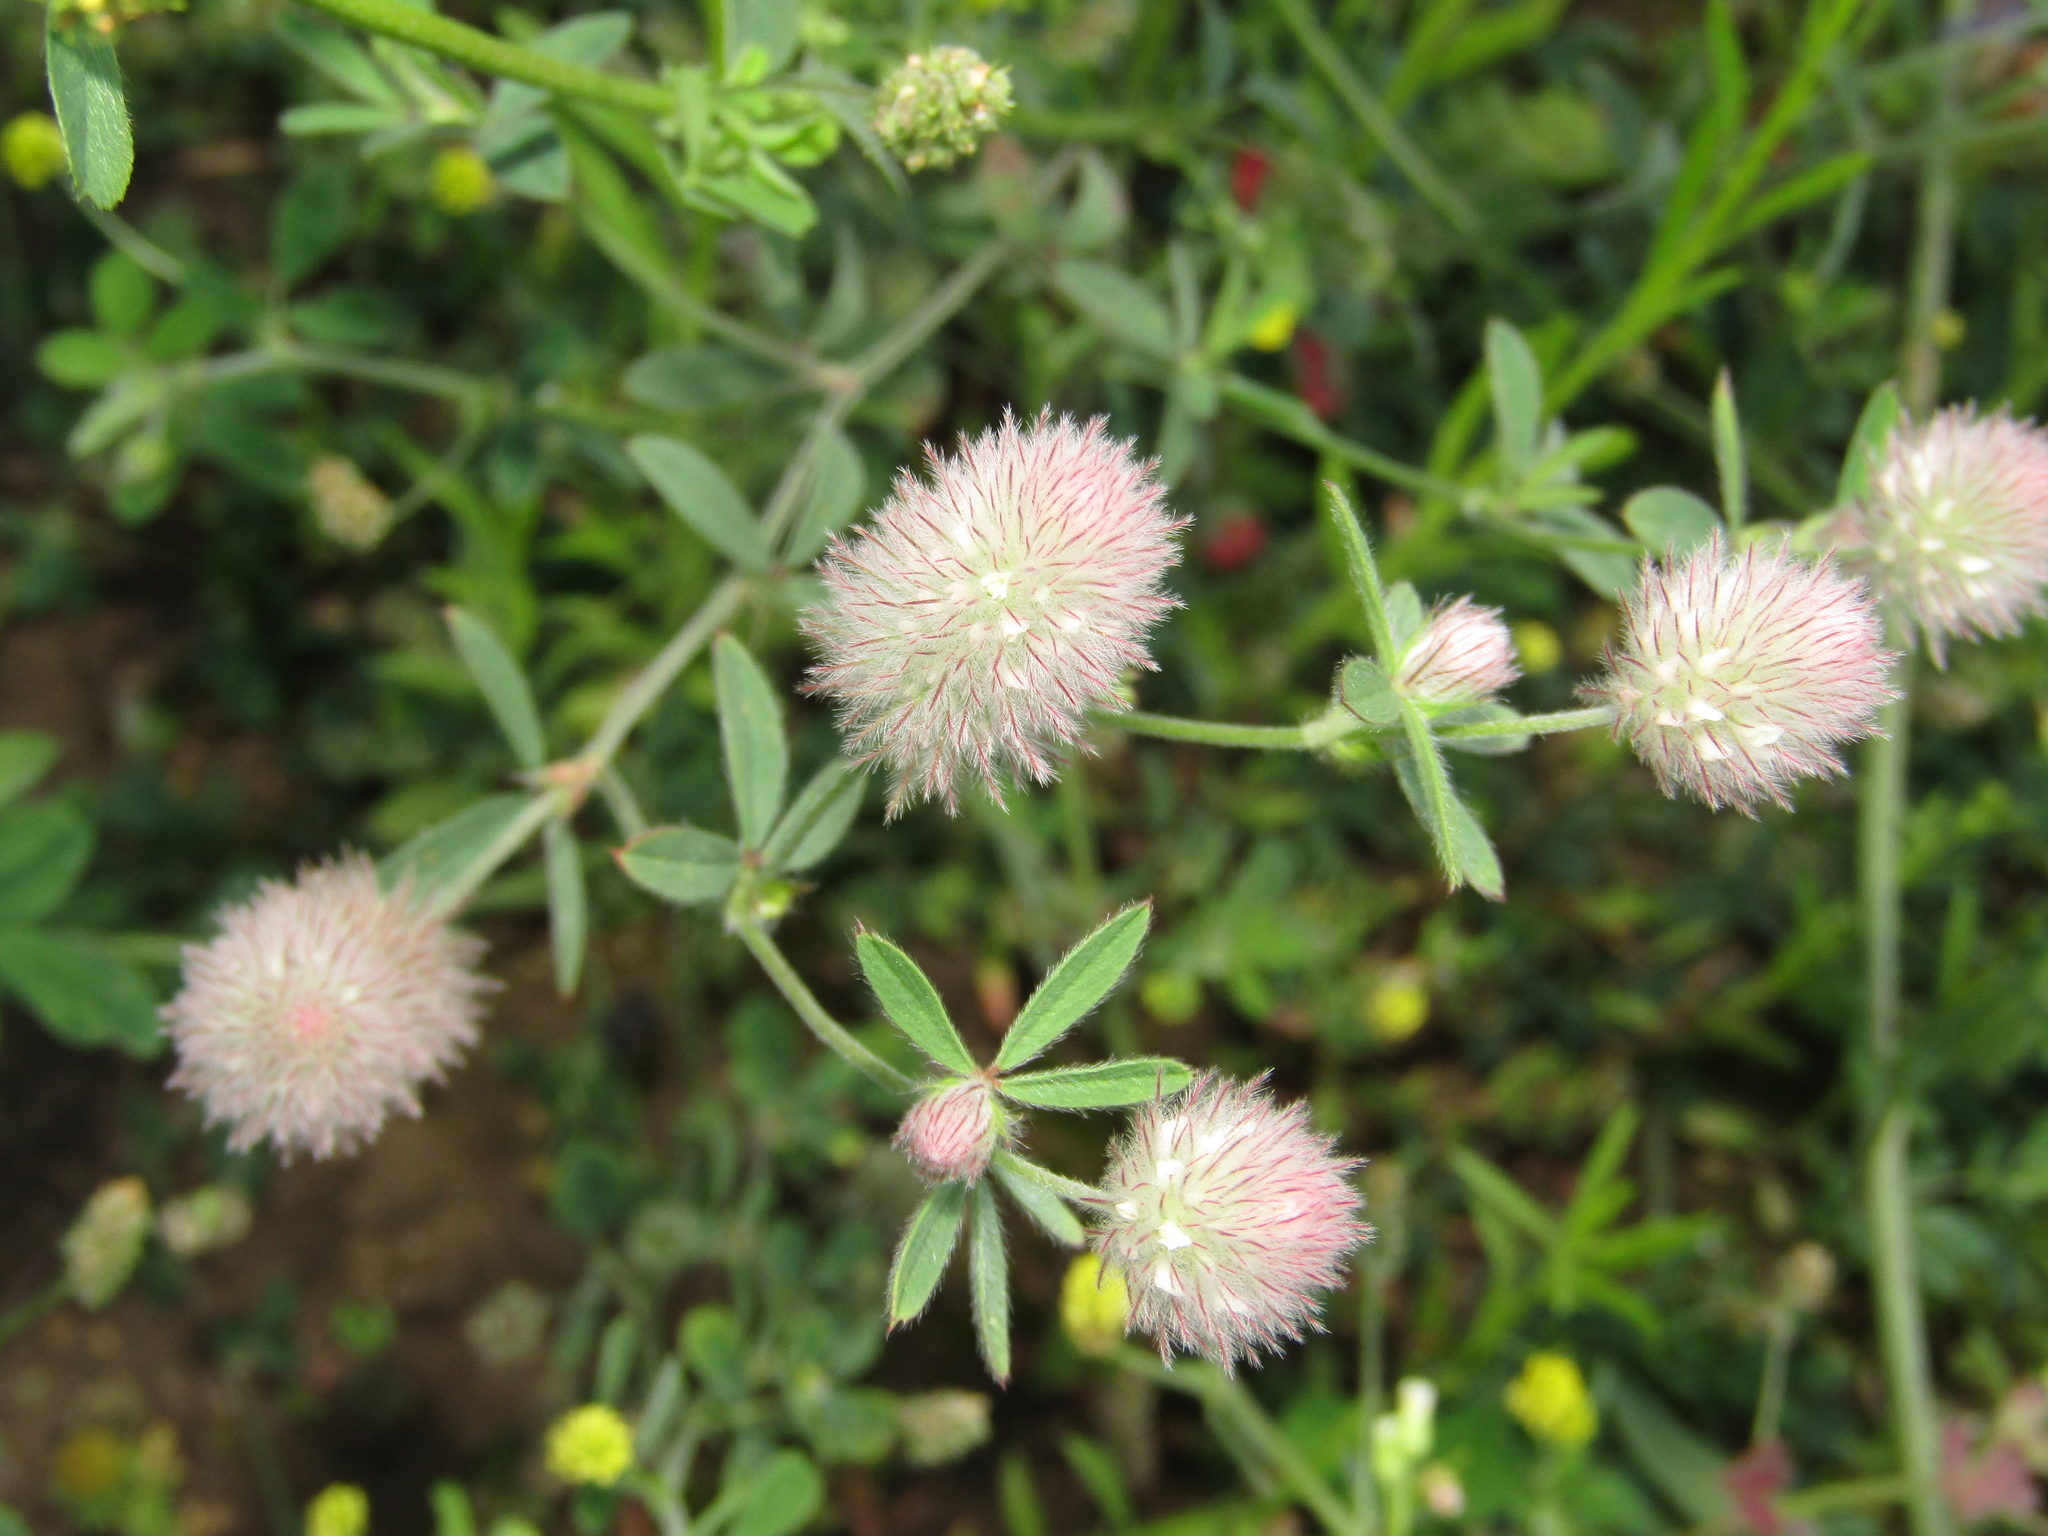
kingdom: Plantae
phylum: Tracheophyta
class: Magnoliopsida
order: Fabales
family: Fabaceae
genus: Trifolium
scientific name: Trifolium arvense
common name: Hare's-foot clover
